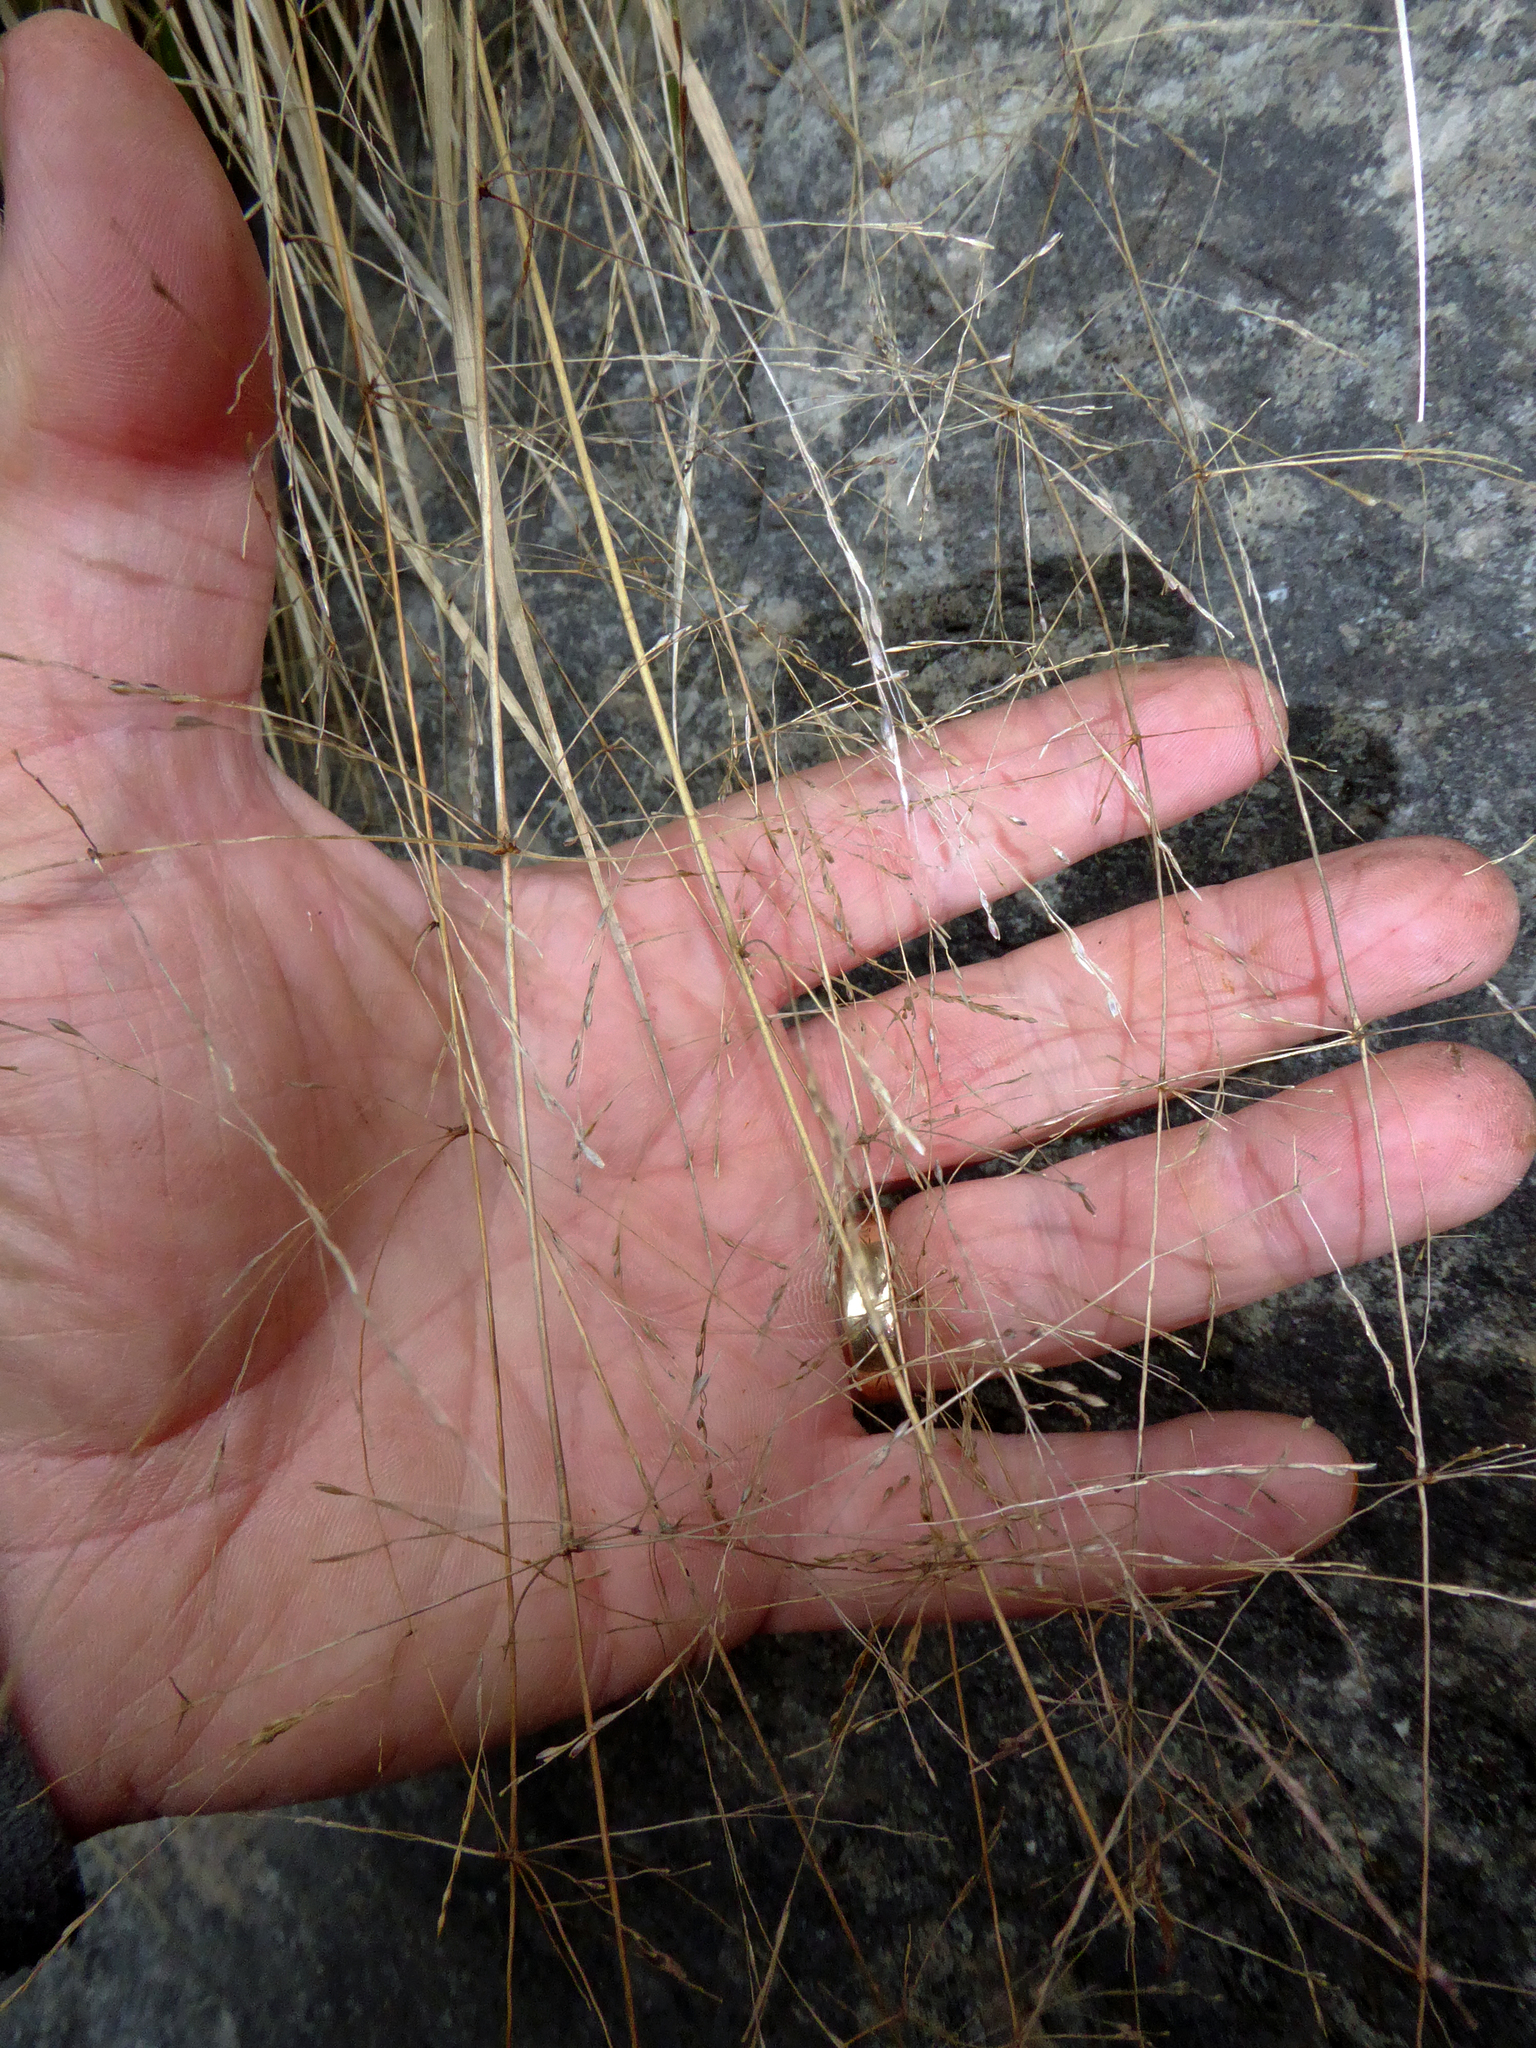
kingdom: Plantae
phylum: Tracheophyta
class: Liliopsida
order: Poales
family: Poaceae
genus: Anemanthele
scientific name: Anemanthele lessoniana
